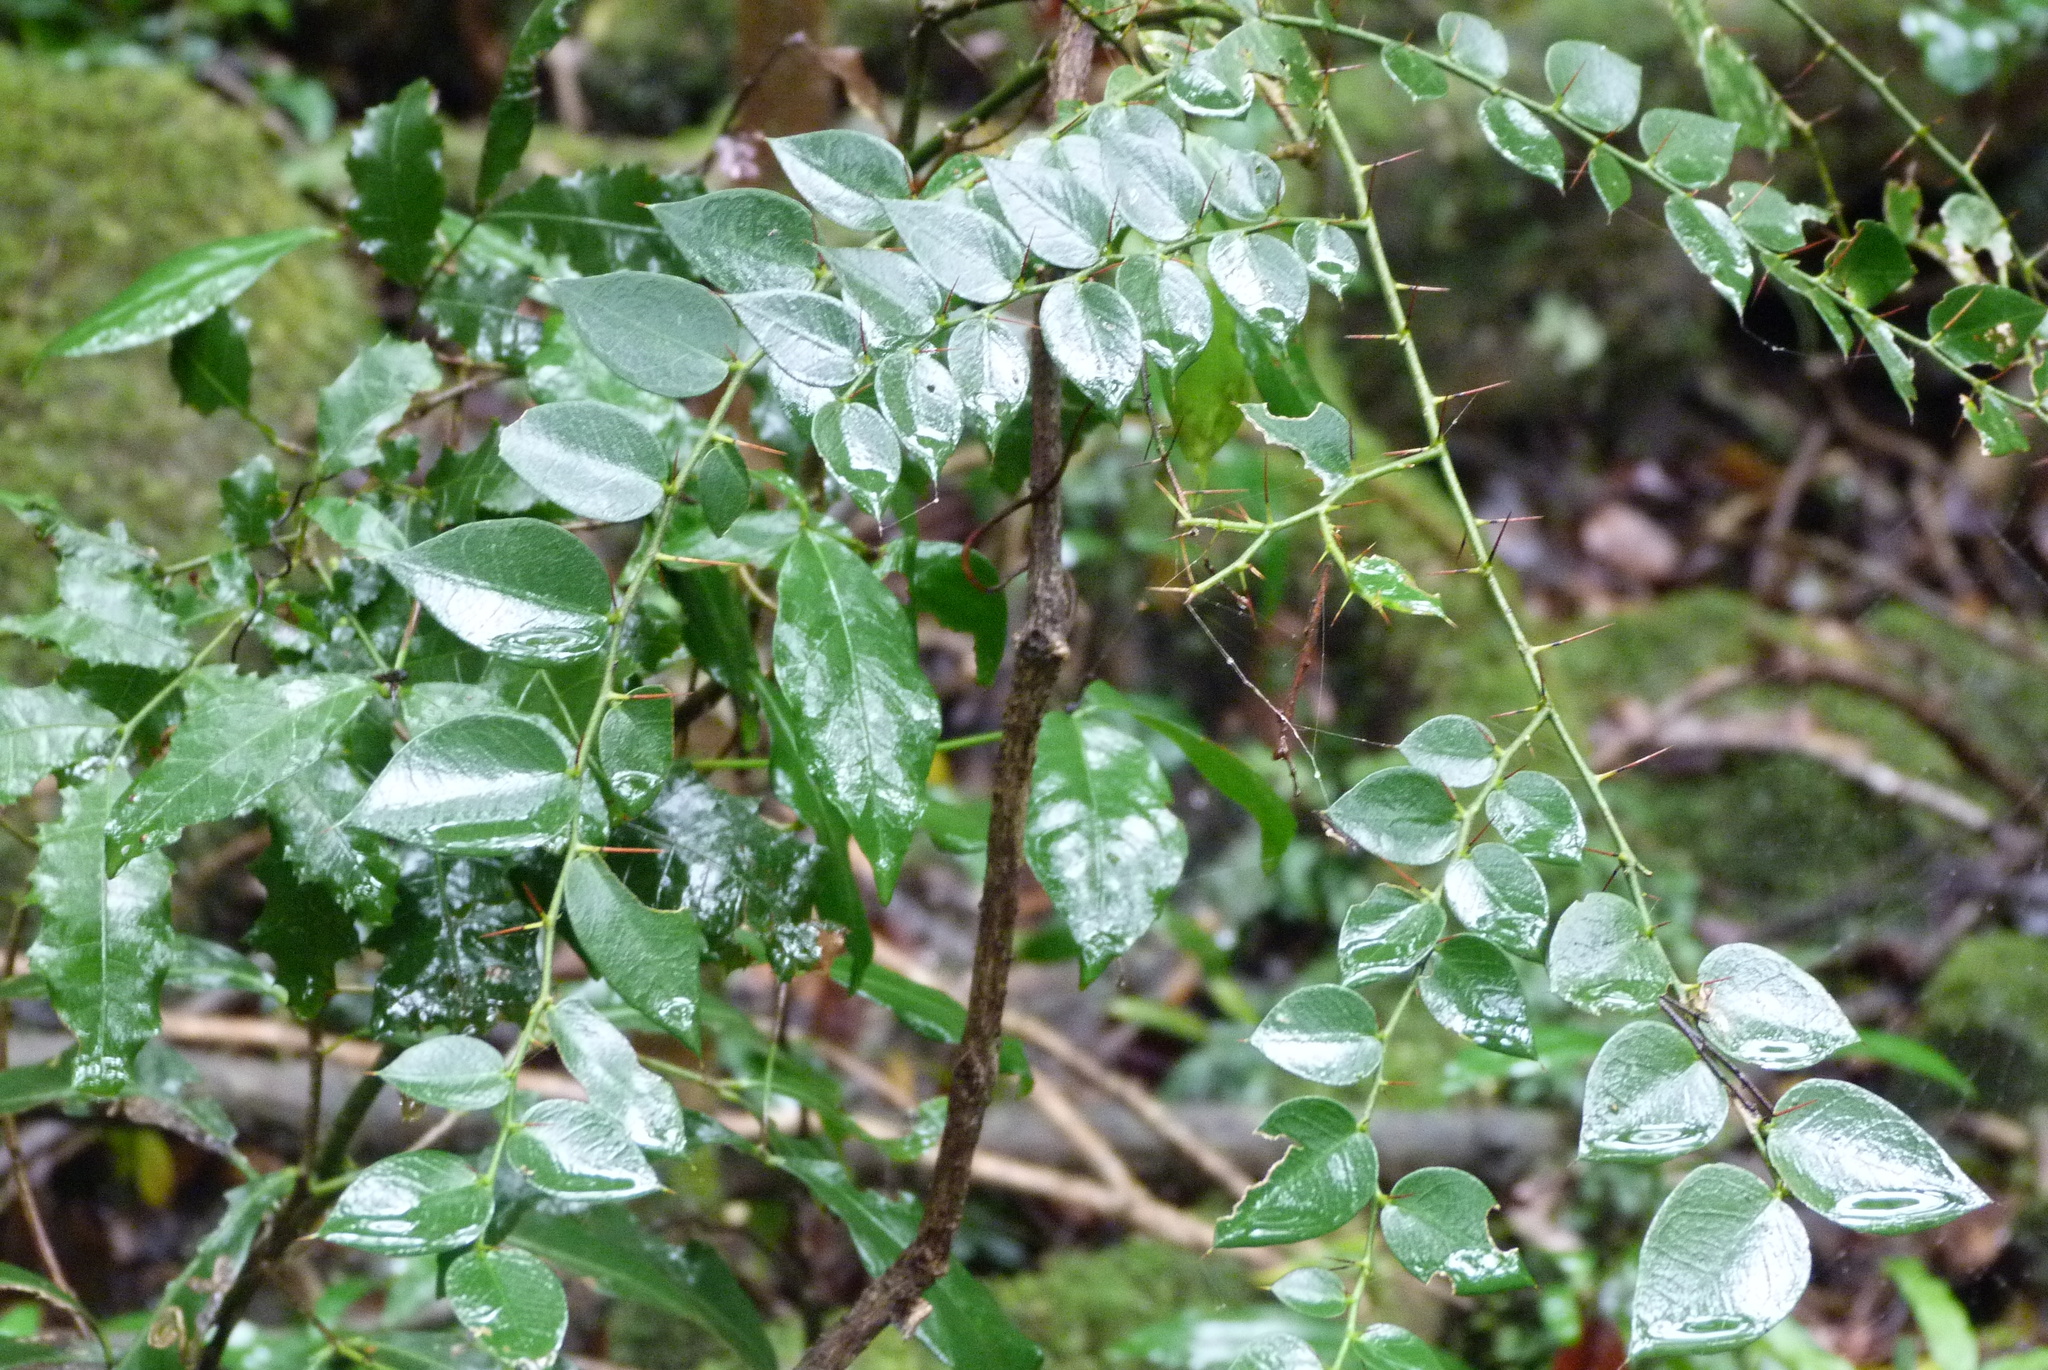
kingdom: Plantae
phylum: Tracheophyta
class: Magnoliopsida
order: Gentianales
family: Apocynaceae
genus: Carissa
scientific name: Carissa ovata
